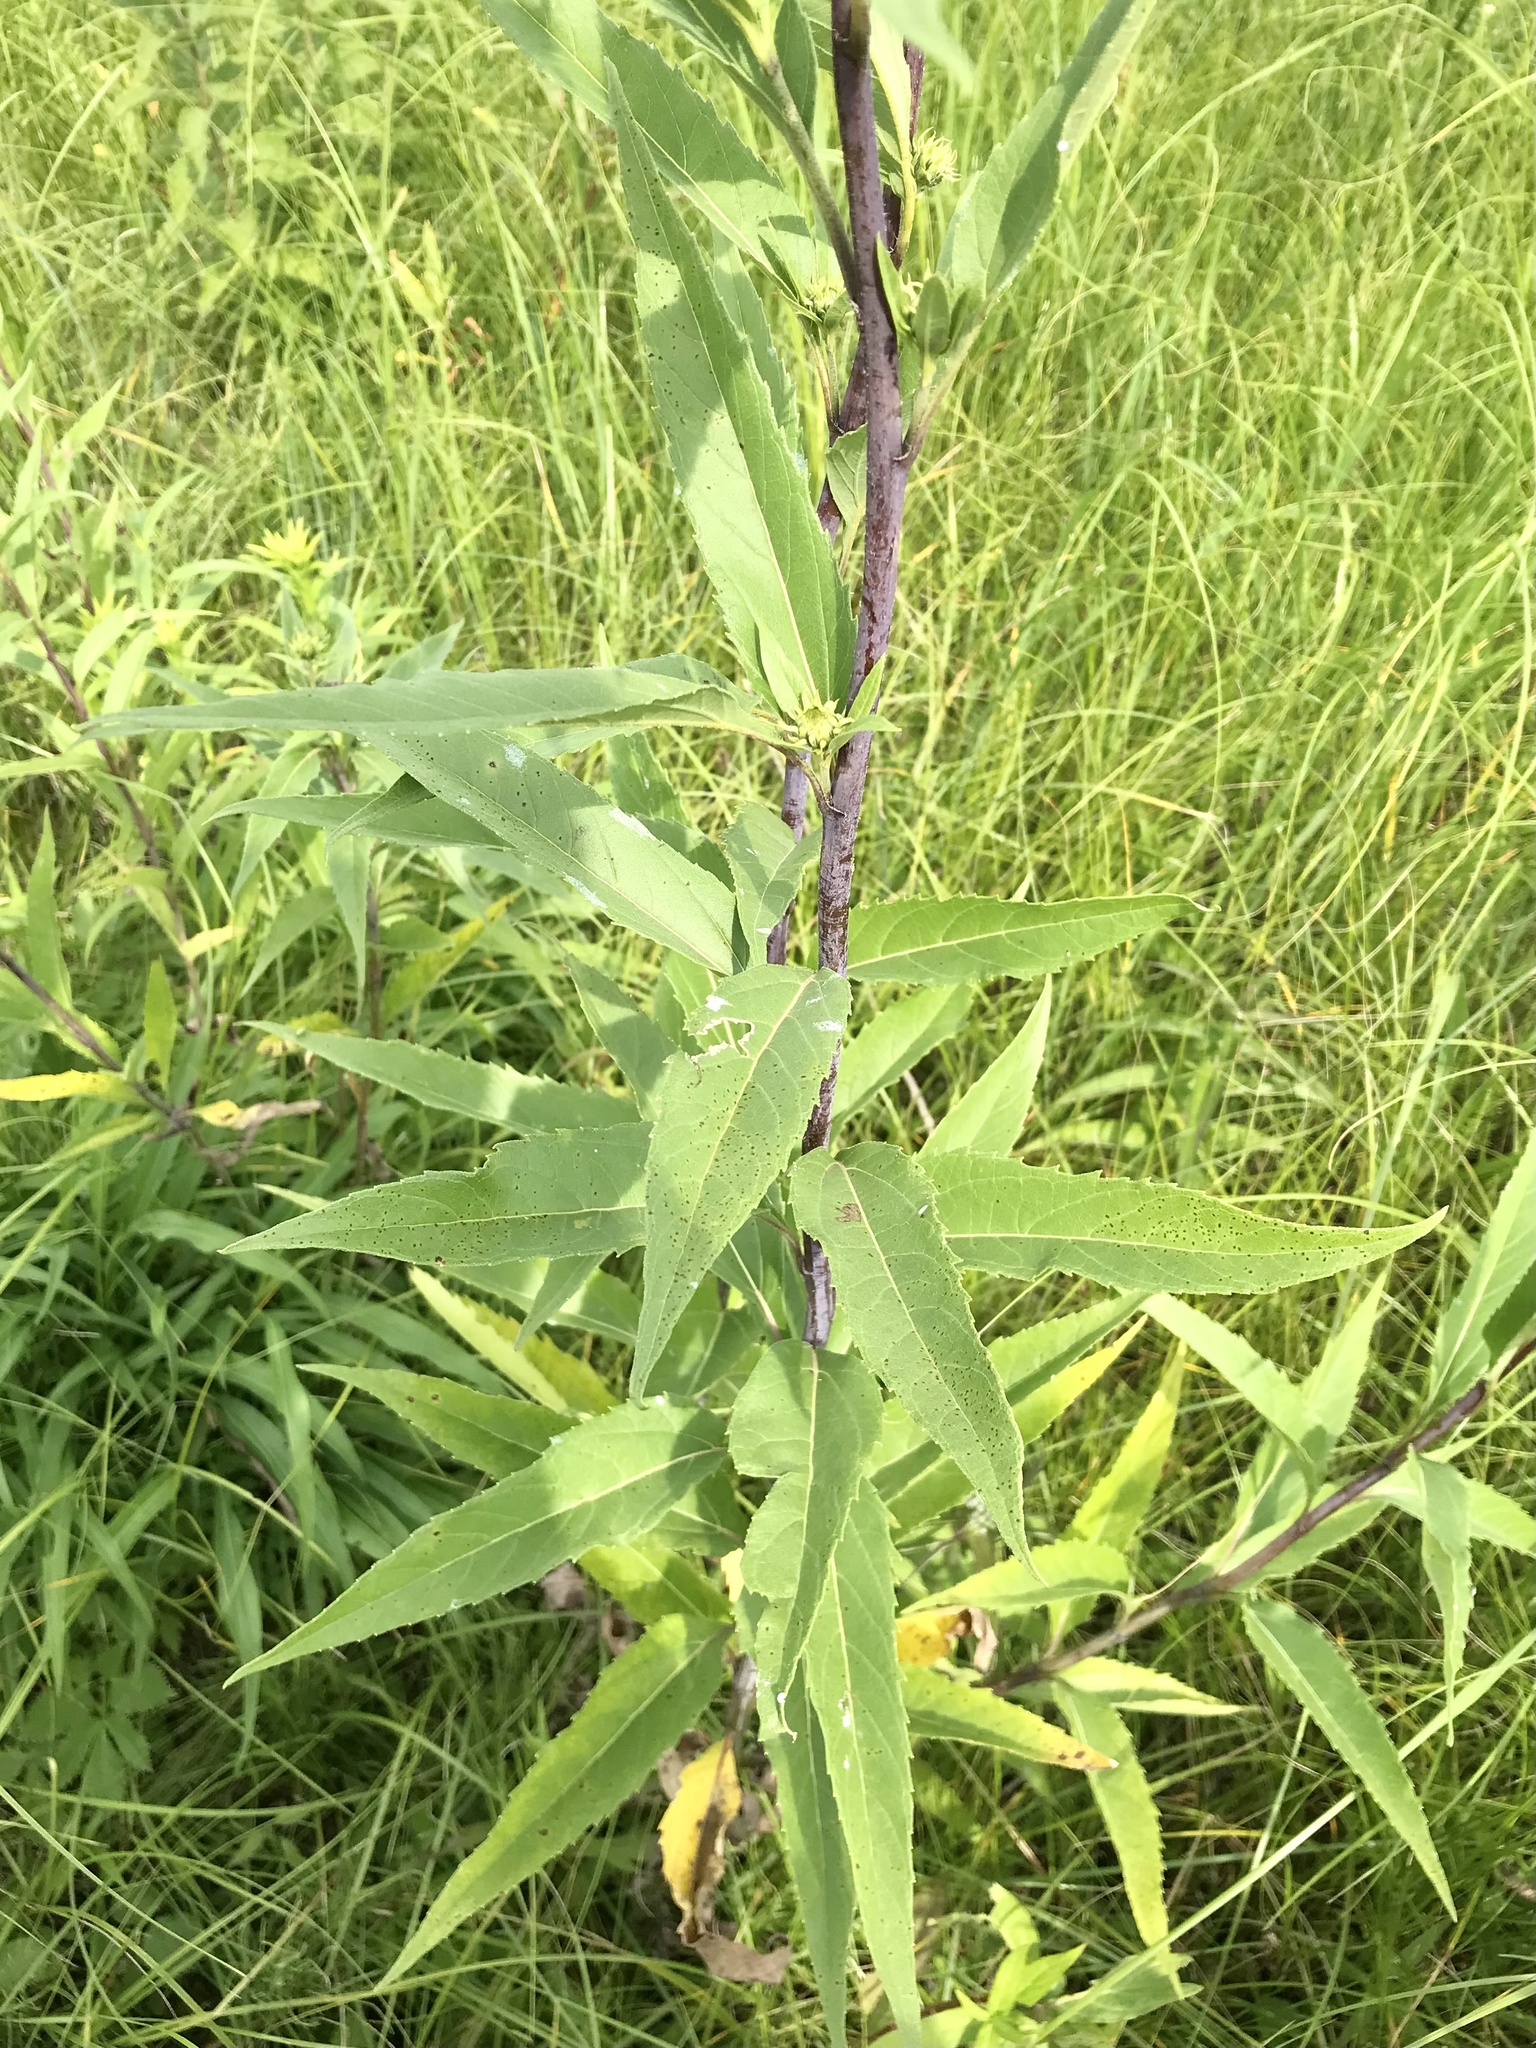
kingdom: Plantae
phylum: Tracheophyta
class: Magnoliopsida
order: Asterales
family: Asteraceae
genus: Helianthus
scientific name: Helianthus grosseserratus
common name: Sawtooth sunflower
